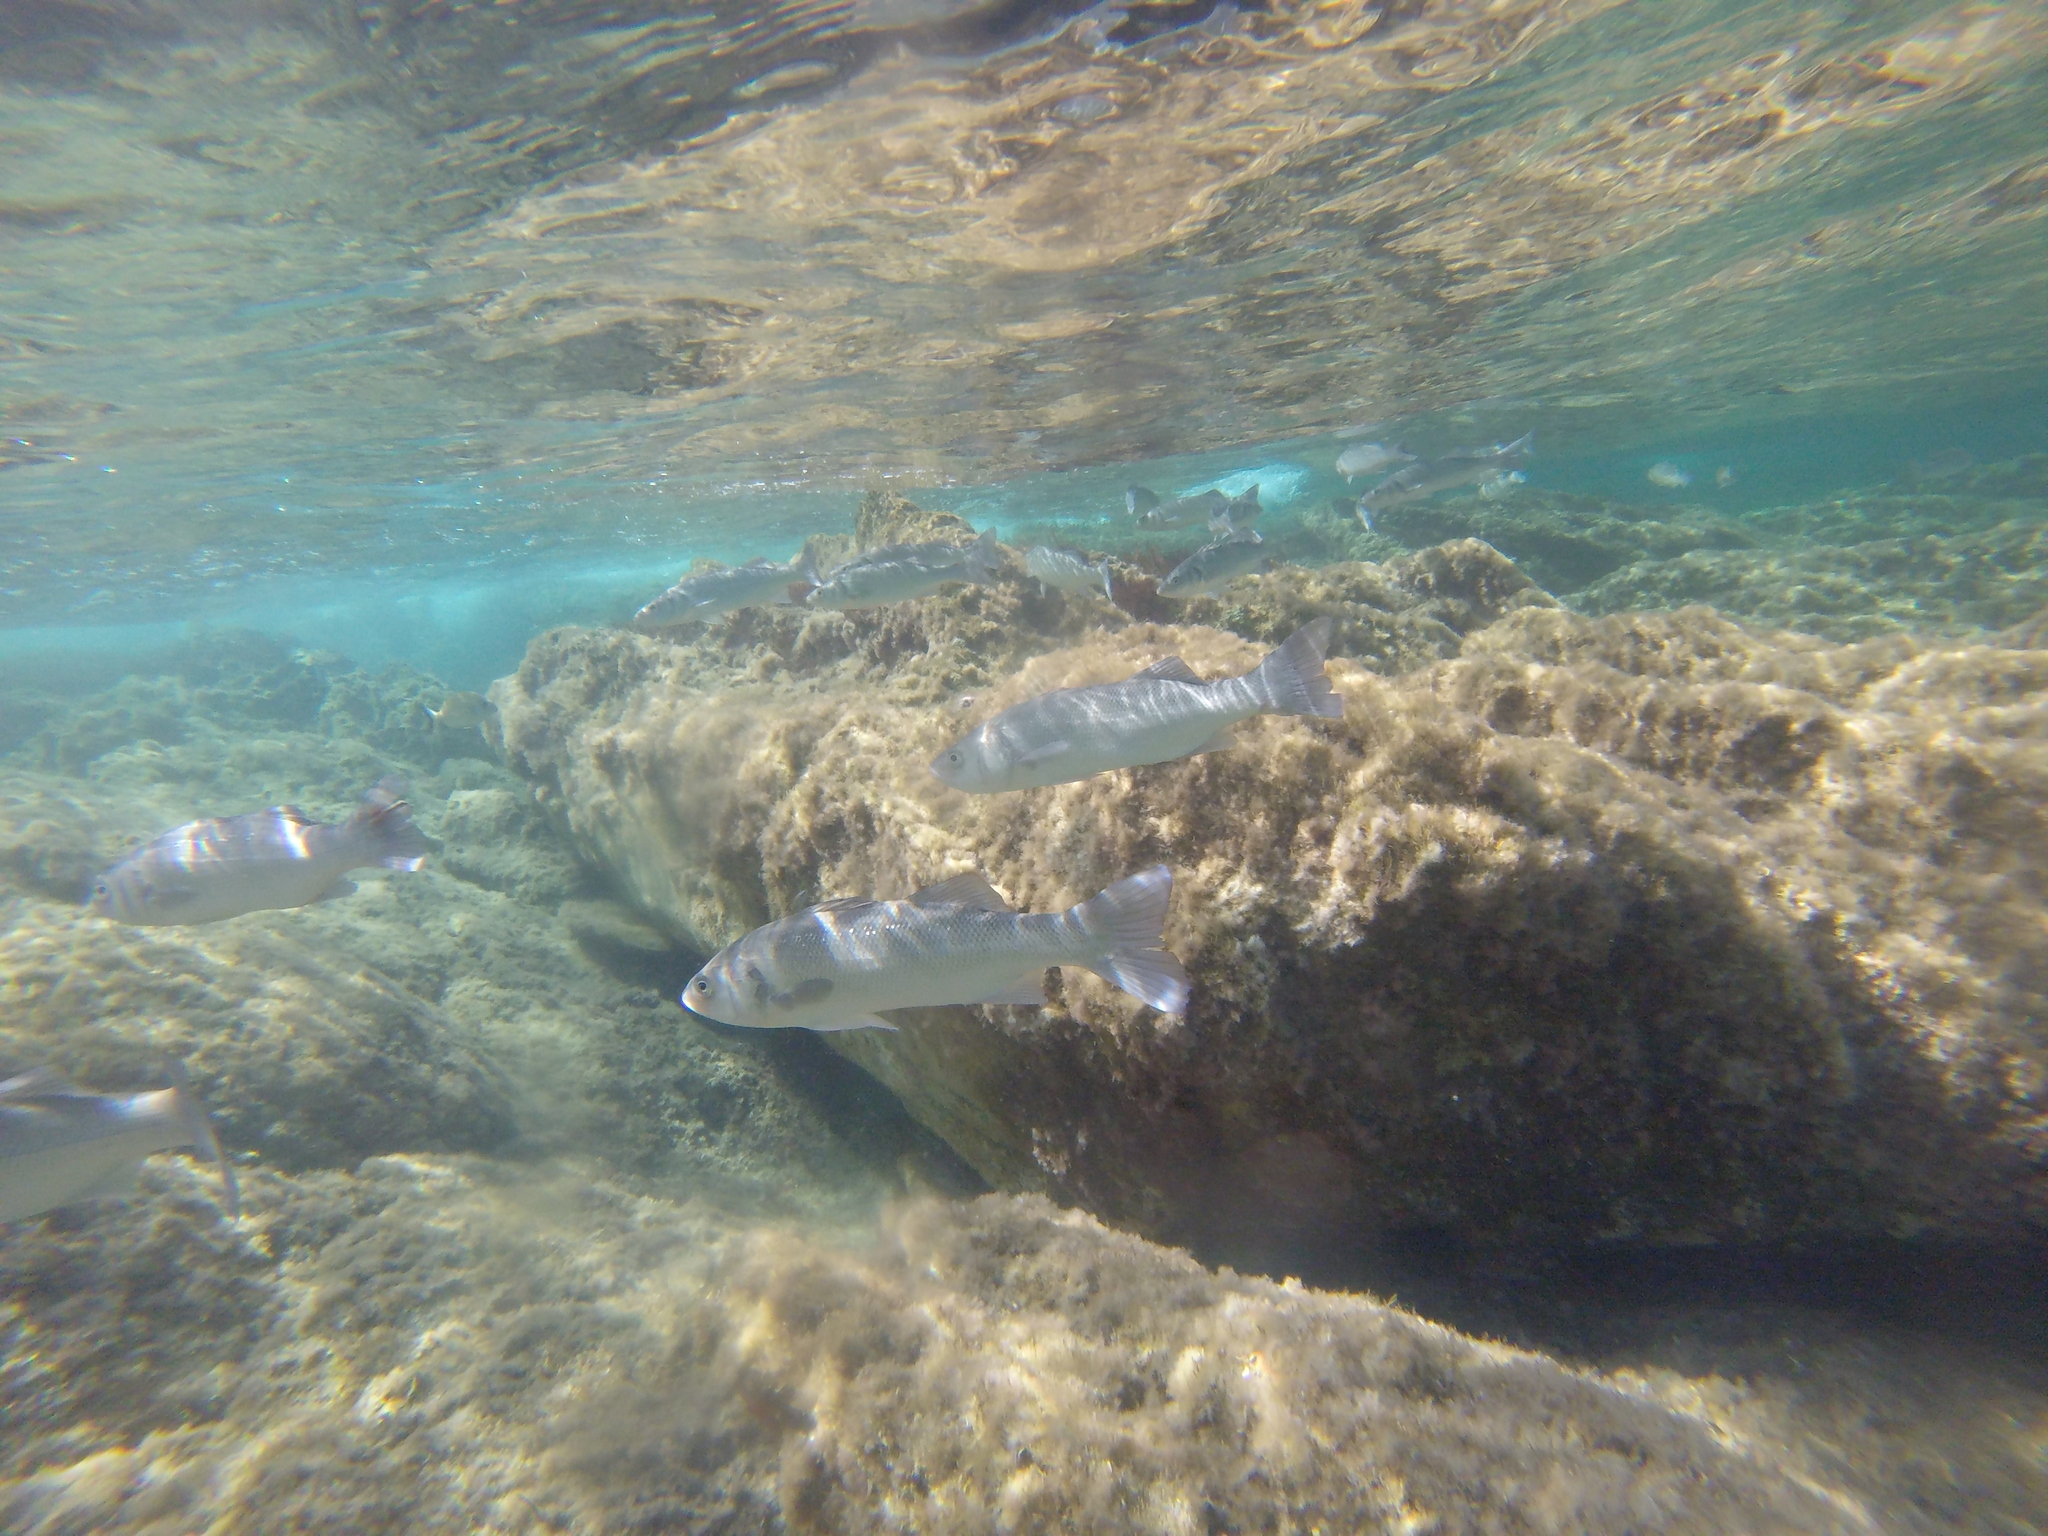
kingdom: Animalia
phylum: Chordata
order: Perciformes
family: Moronidae
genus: Dicentrarchus
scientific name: Dicentrarchus labrax
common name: European seabass
